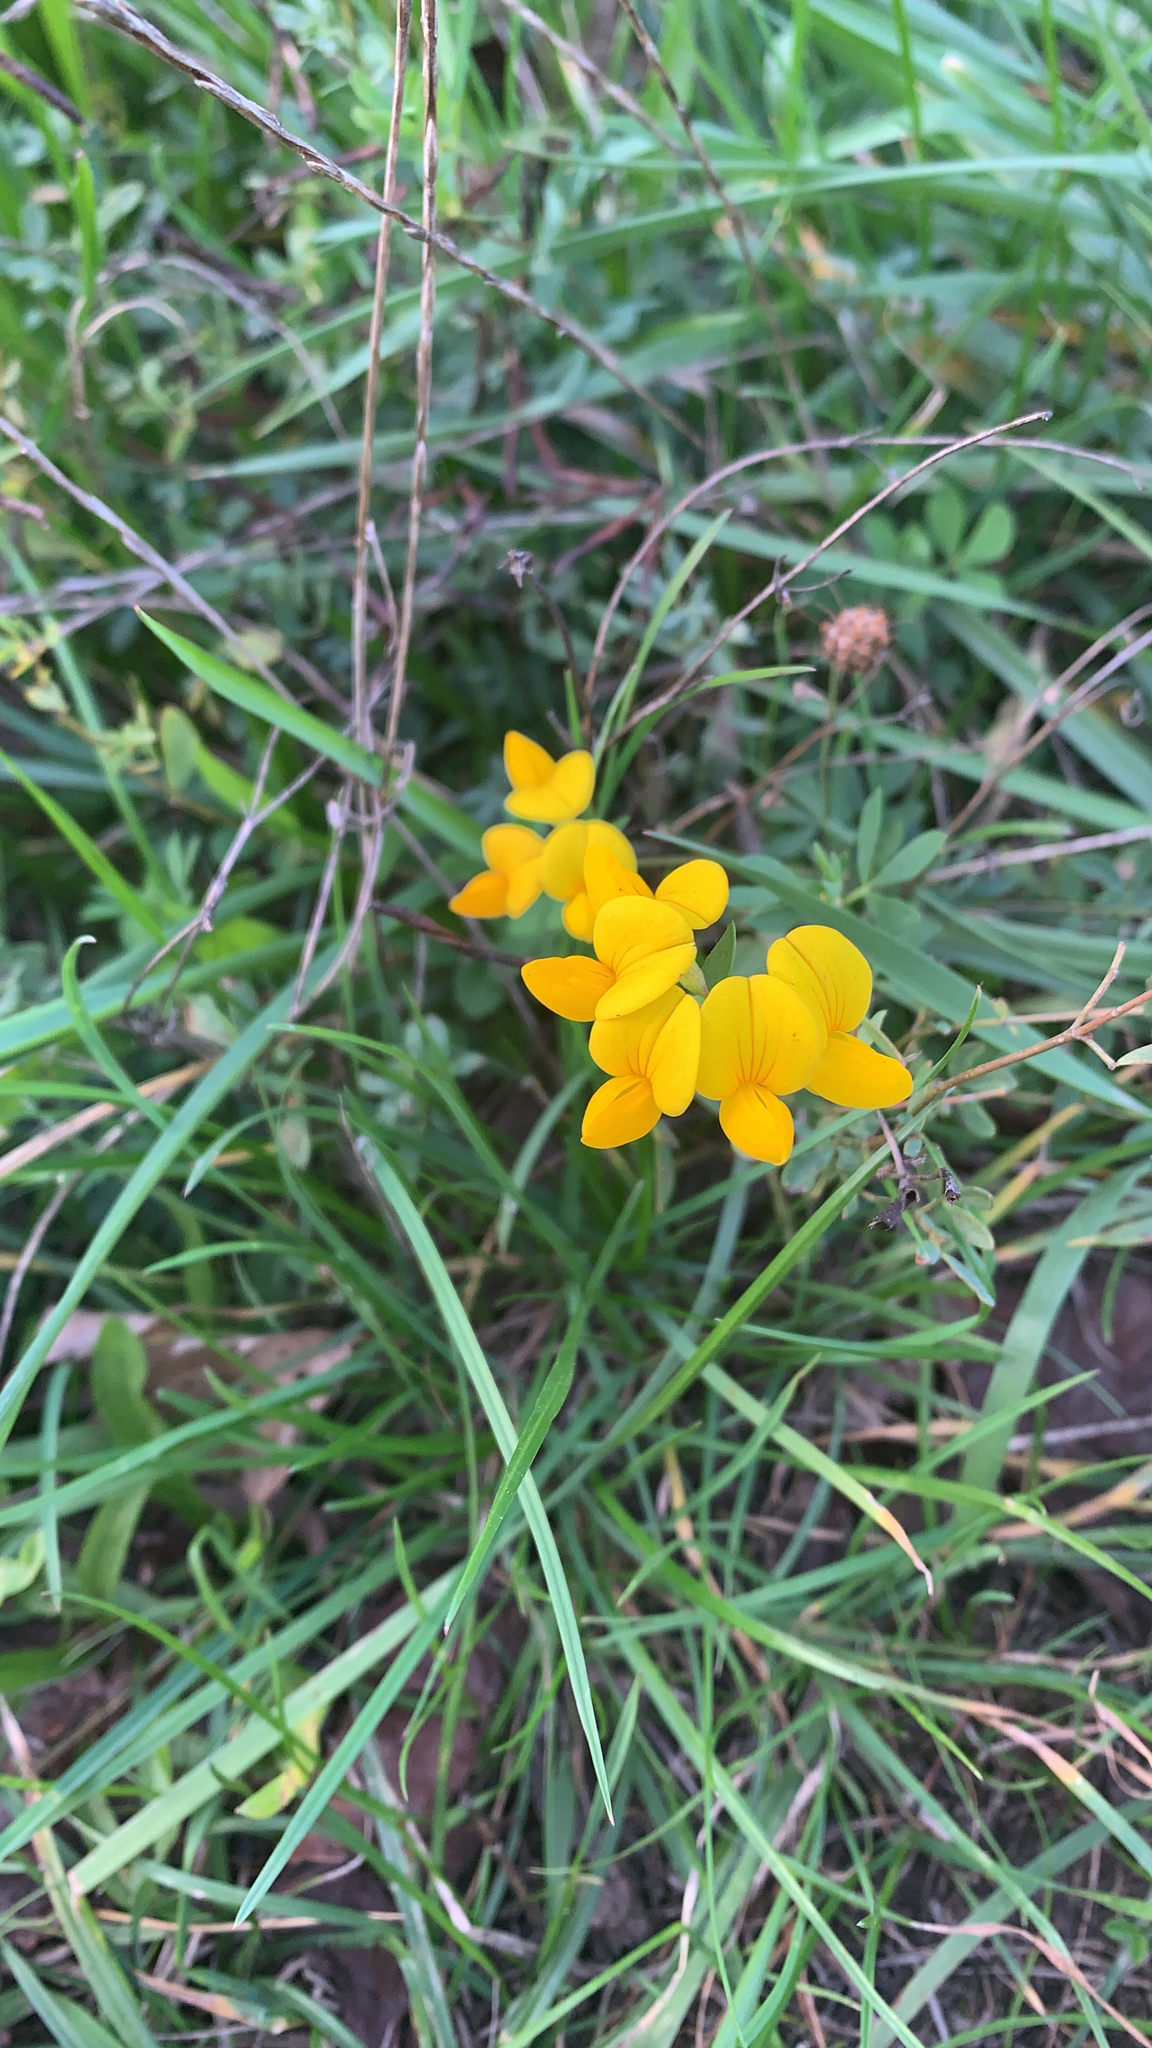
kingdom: Plantae
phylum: Tracheophyta
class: Magnoliopsida
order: Fabales
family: Fabaceae
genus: Lotus
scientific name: Lotus corniculatus
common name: Common bird's-foot-trefoil
